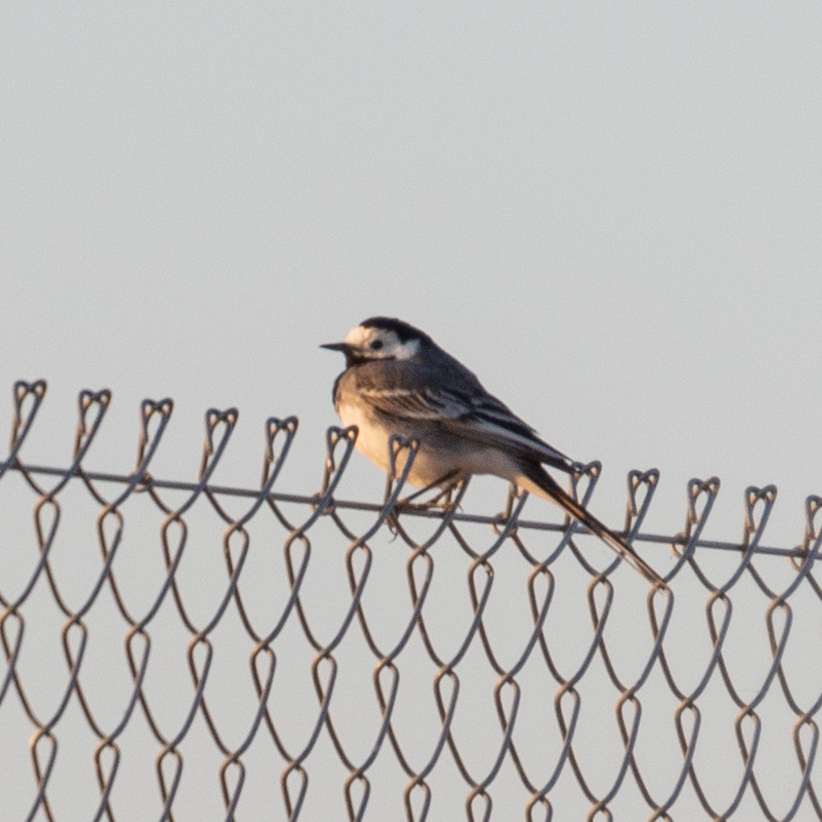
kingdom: Animalia
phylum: Chordata
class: Aves
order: Passeriformes
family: Motacillidae
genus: Motacilla
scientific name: Motacilla alba
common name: White wagtail
